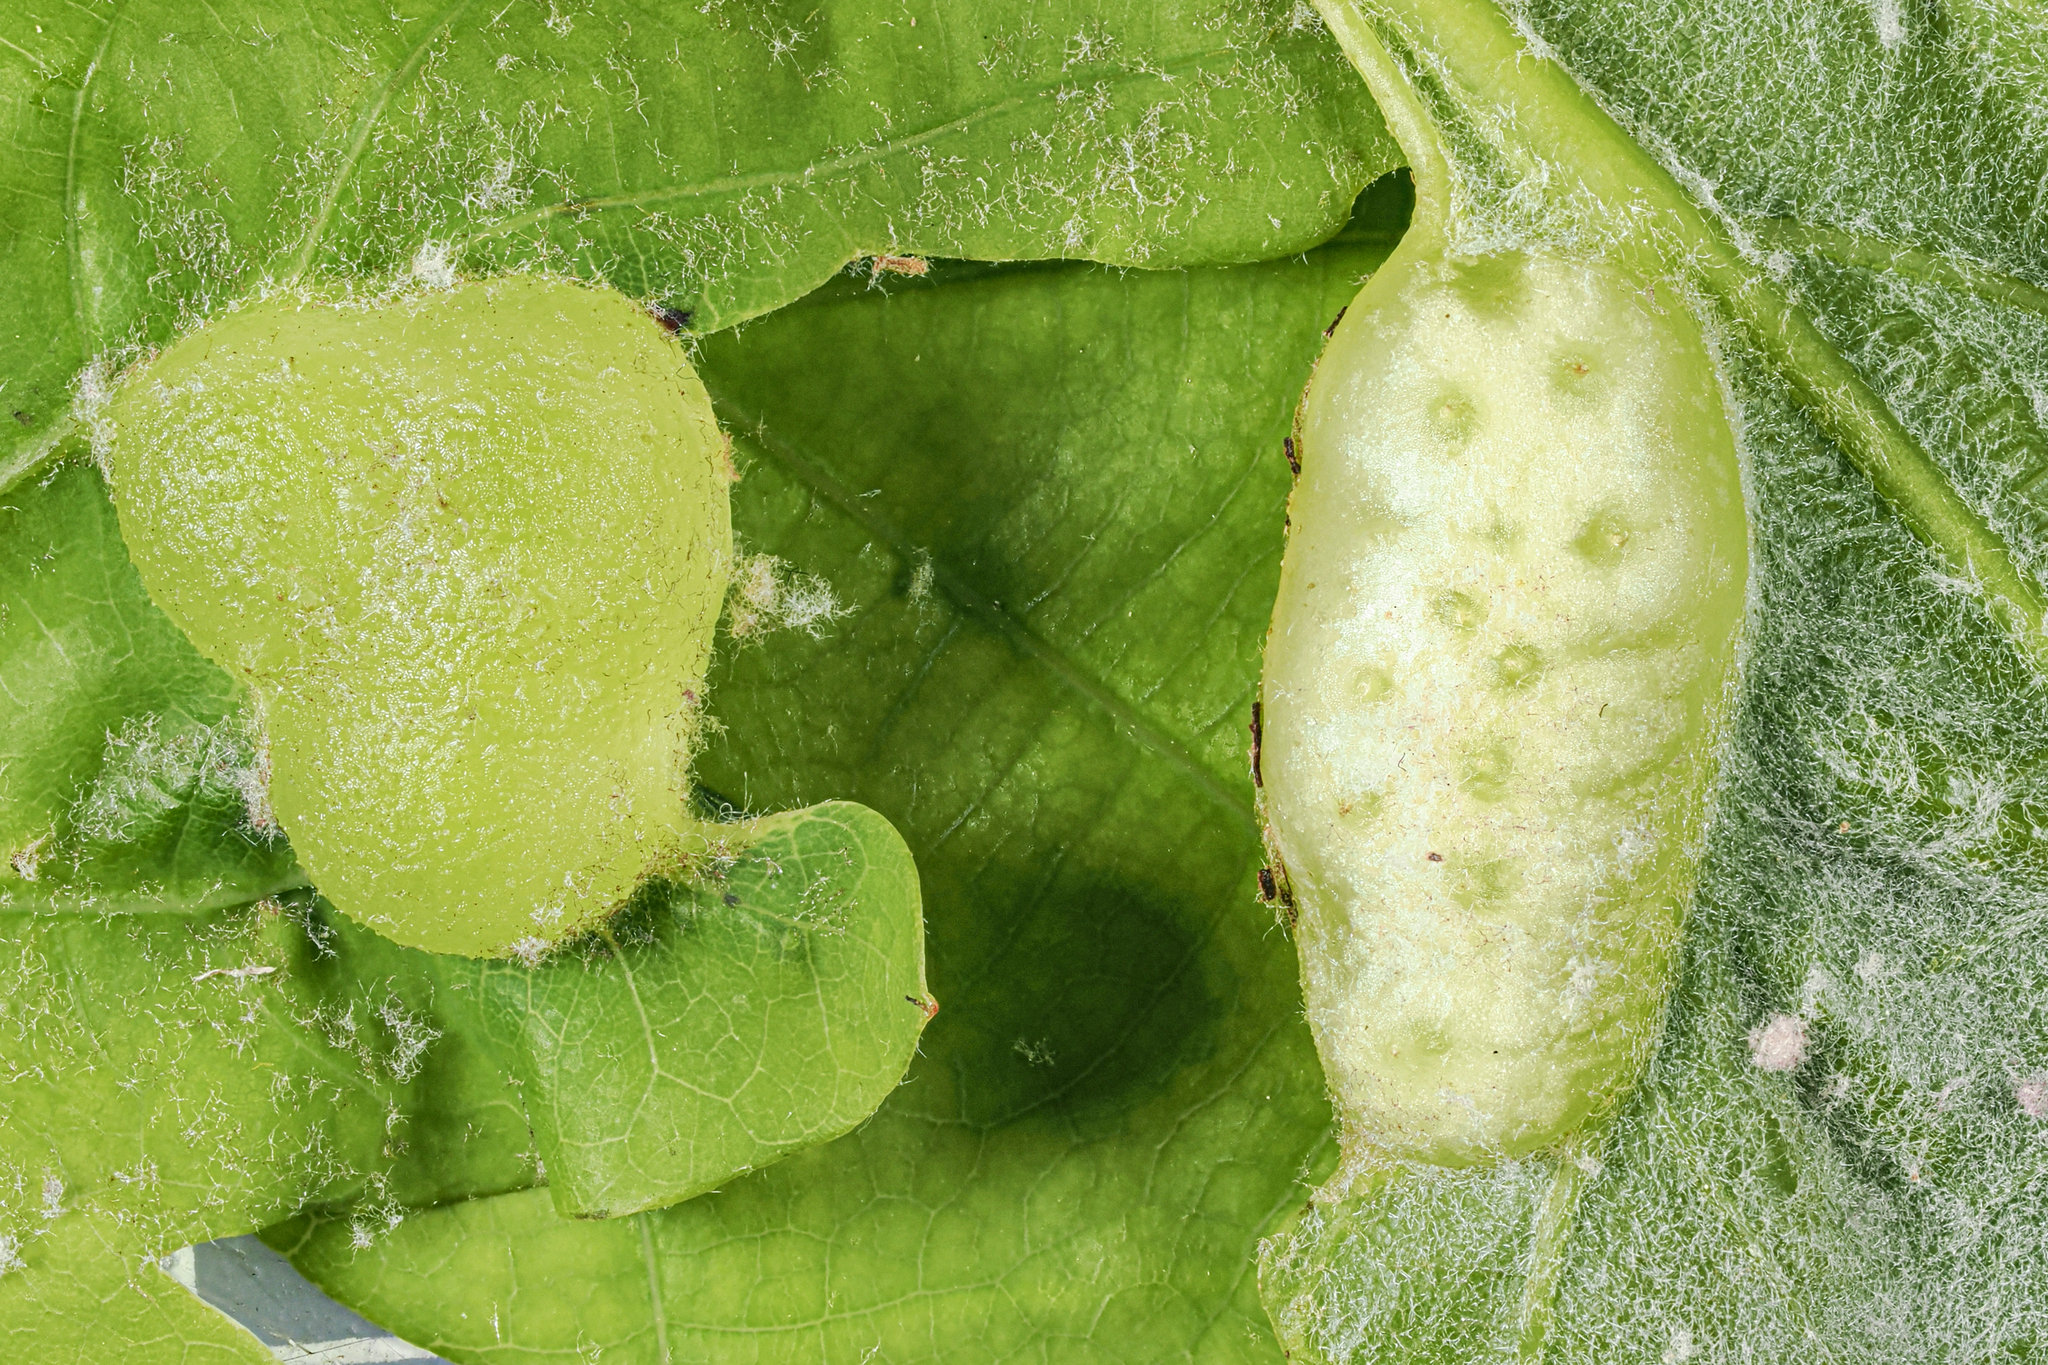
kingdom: Animalia
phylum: Arthropoda
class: Insecta
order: Hymenoptera
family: Cynipidae
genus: Neuroterus
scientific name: Neuroterus quercusirregularis
